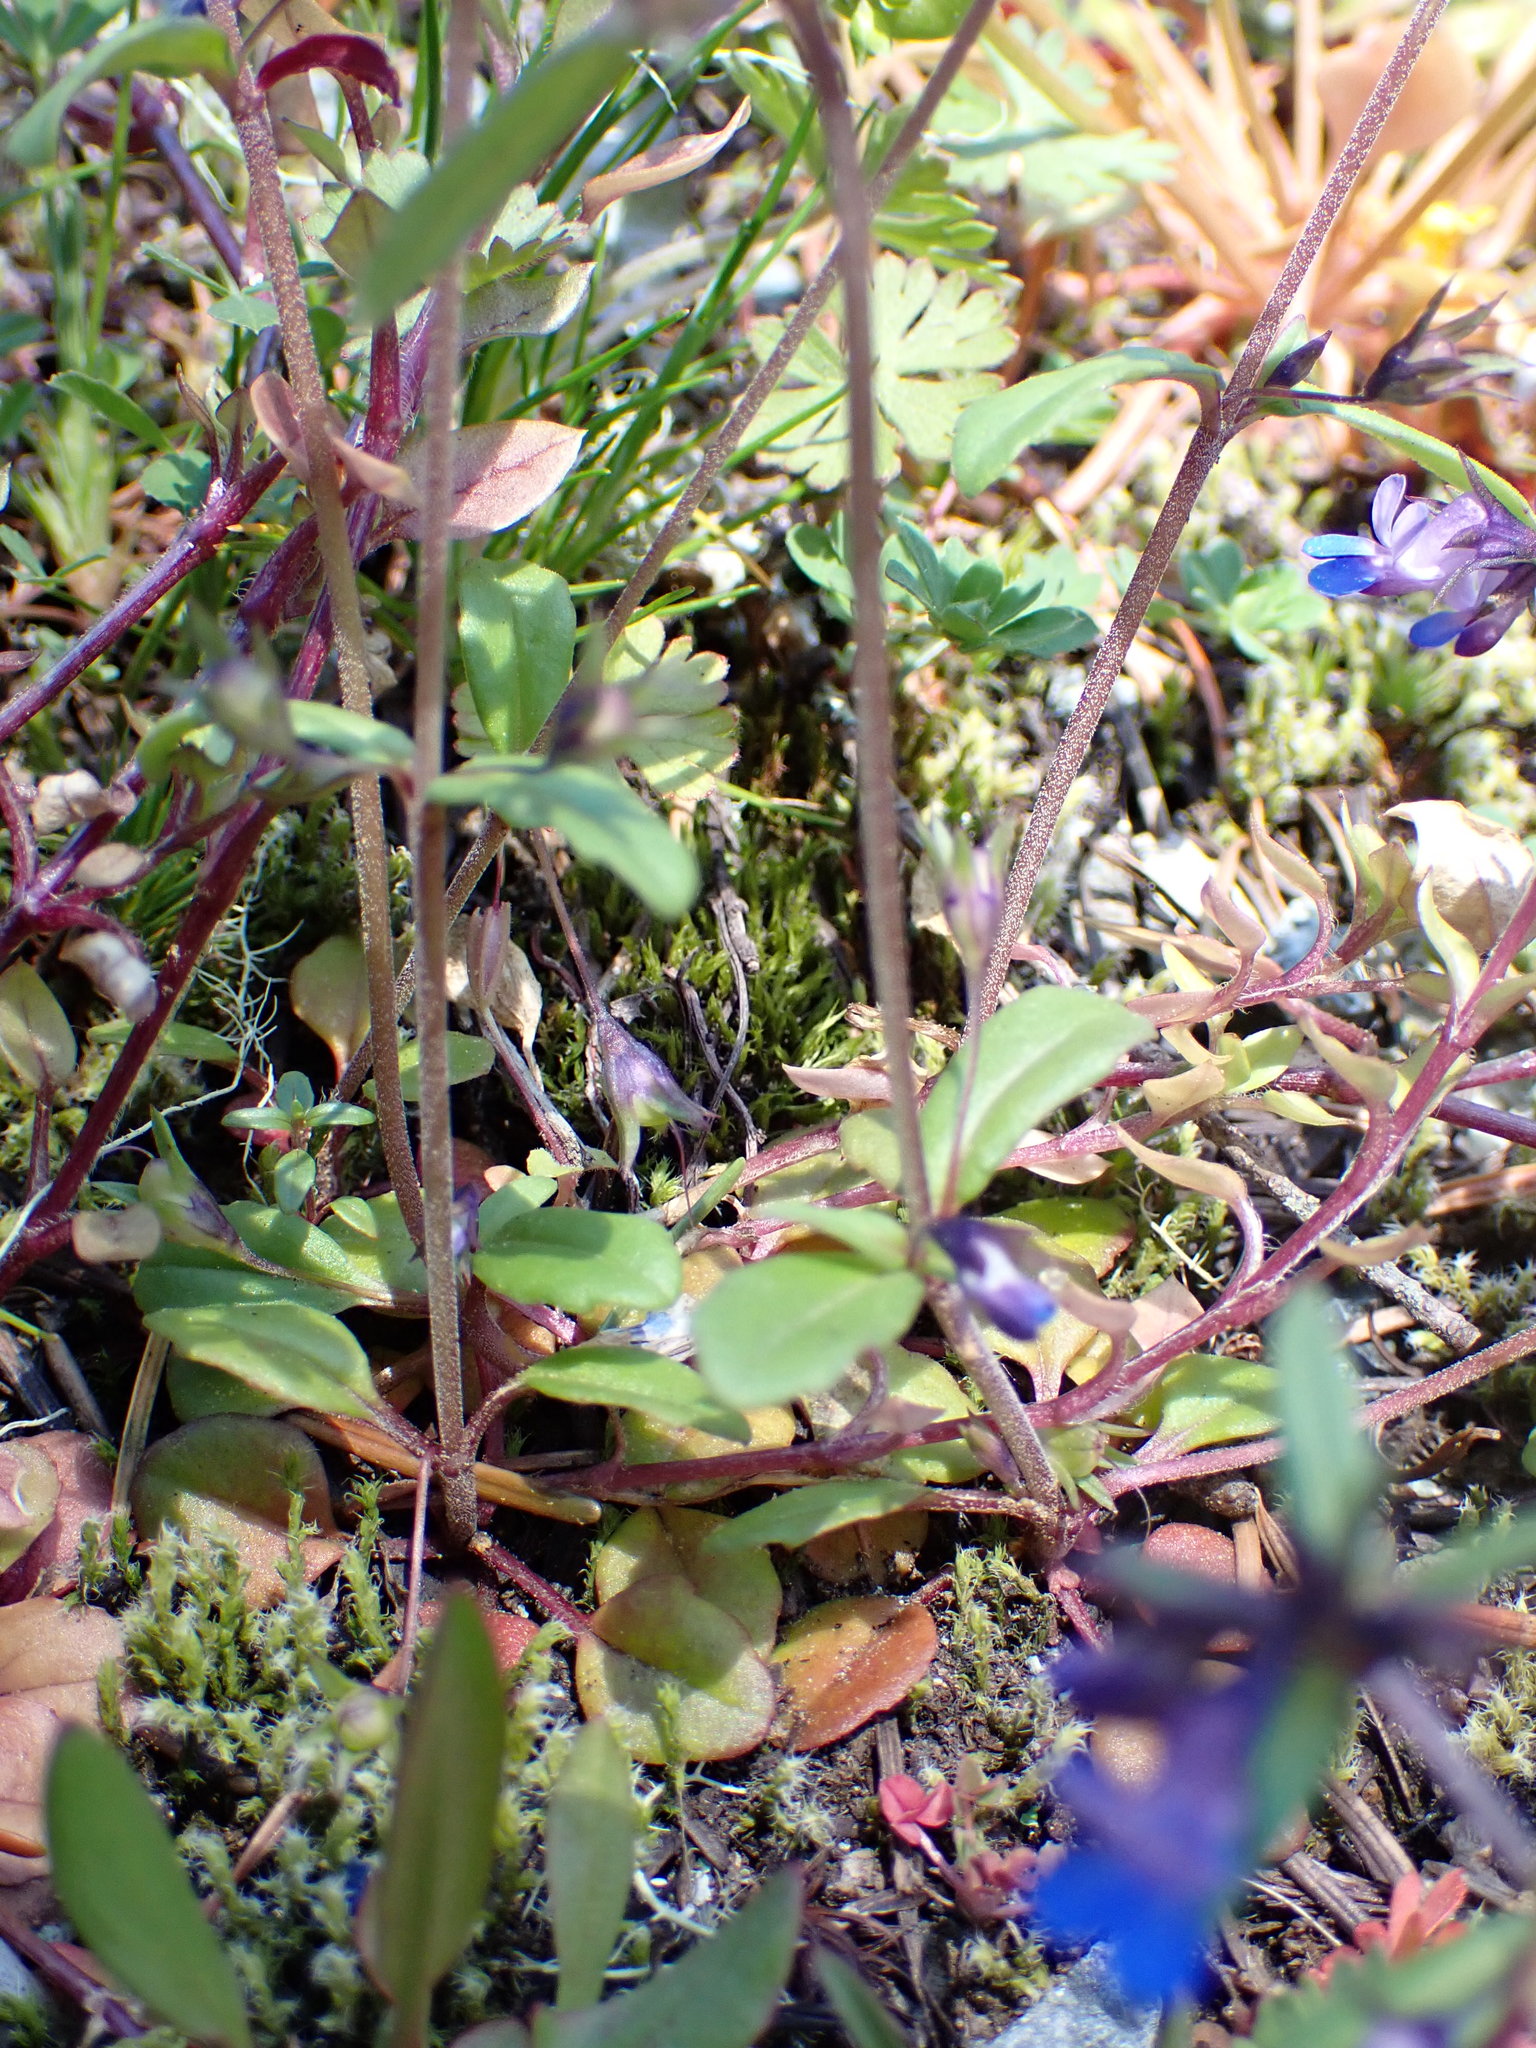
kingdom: Plantae
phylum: Tracheophyta
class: Magnoliopsida
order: Lamiales
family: Plantaginaceae
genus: Collinsia
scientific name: Collinsia parviflora
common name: Blue-lips
